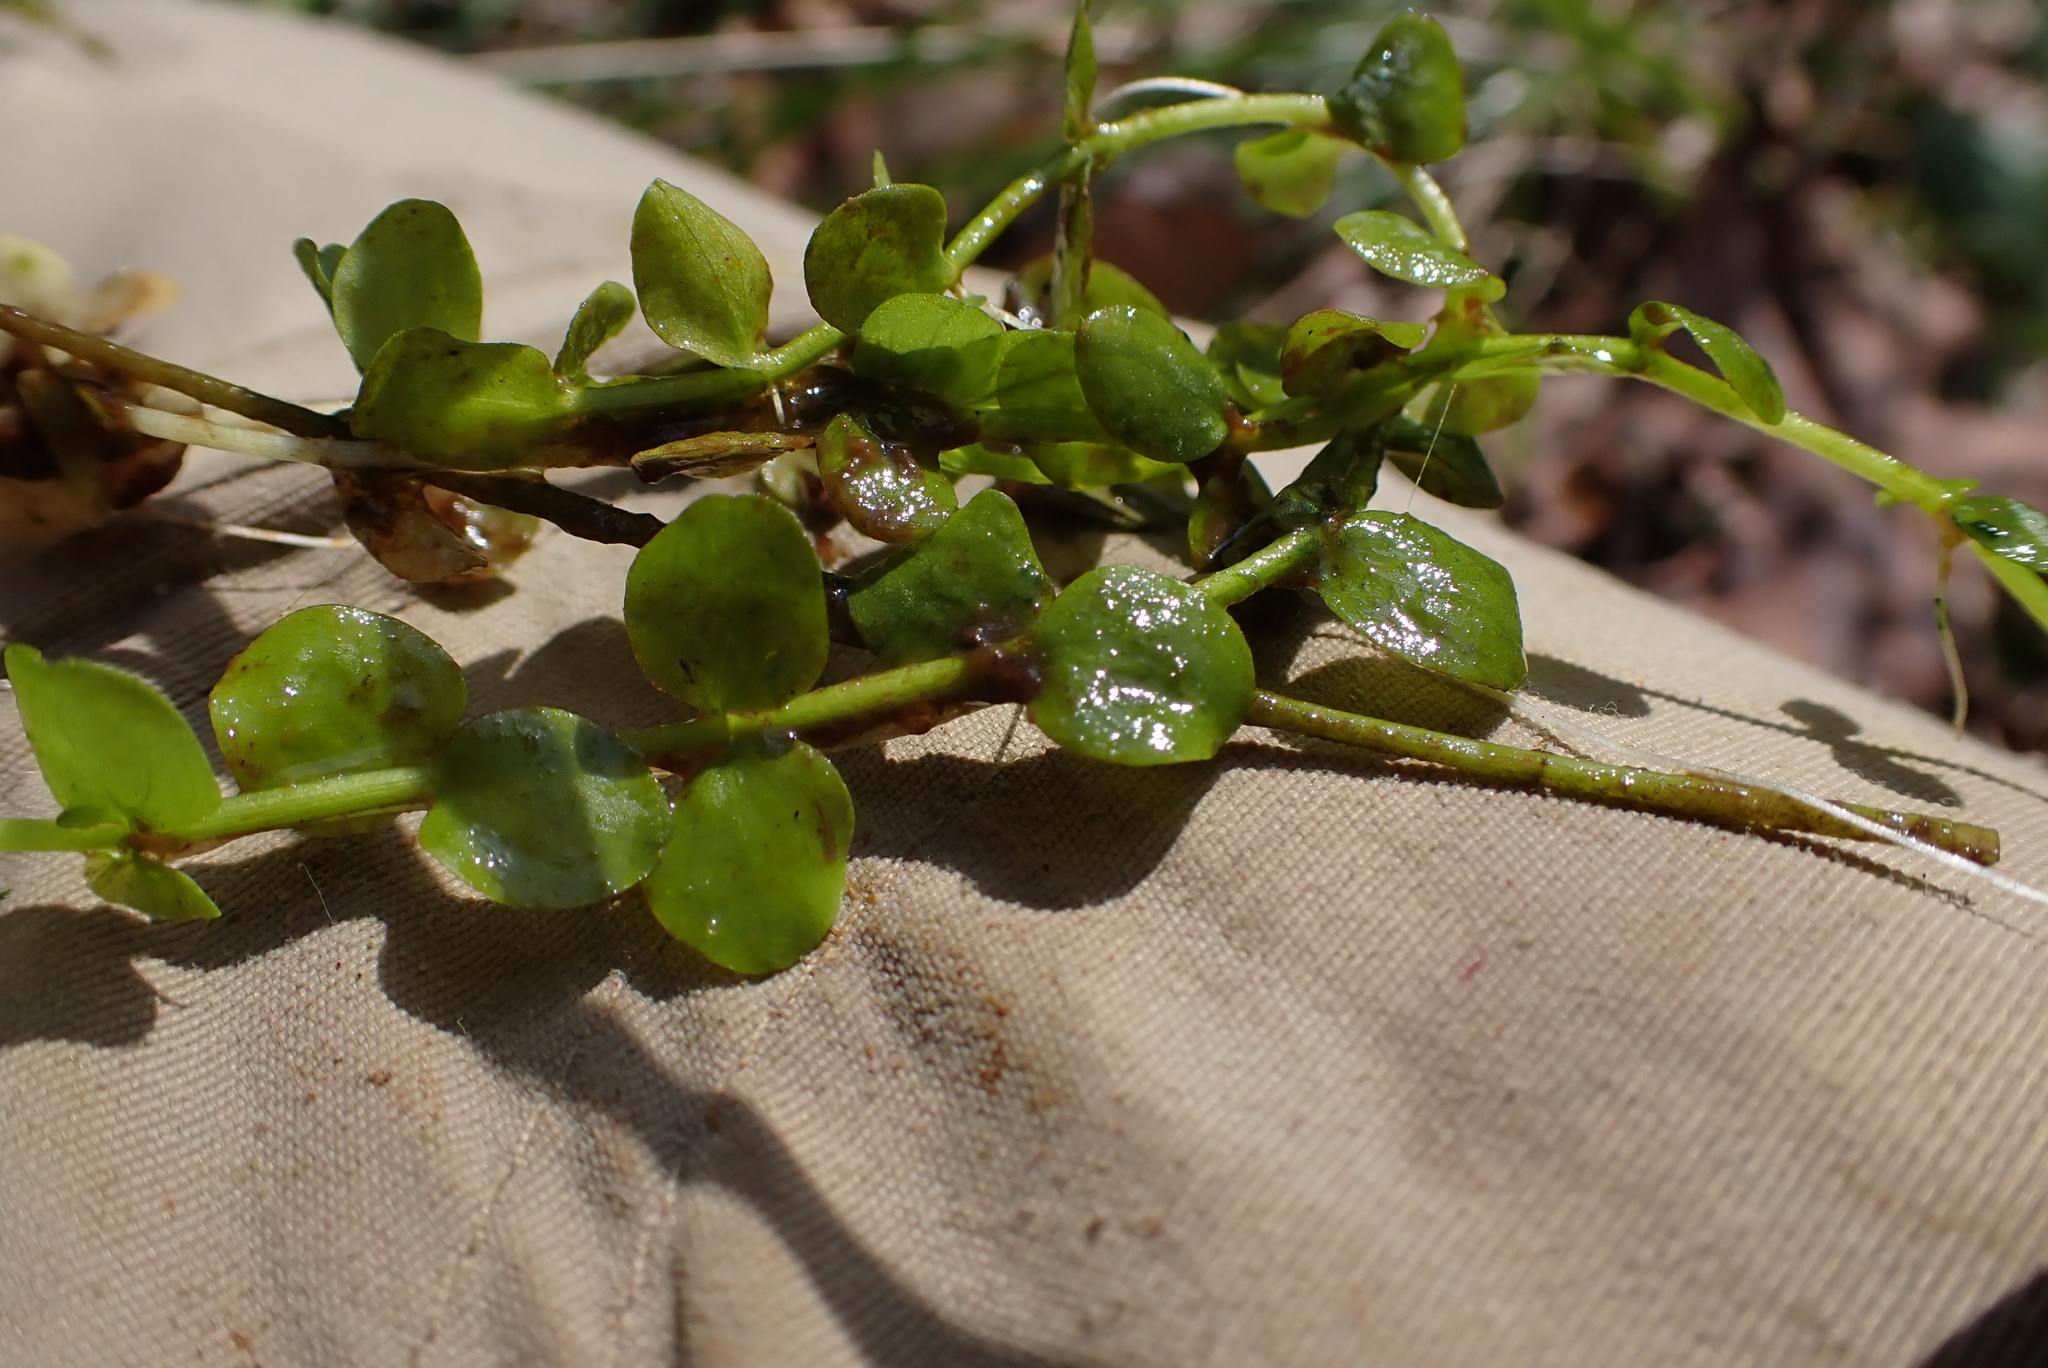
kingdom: Plantae
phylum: Tracheophyta
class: Magnoliopsida
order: Lamiales
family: Linderniaceae
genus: Micranthemum
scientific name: Micranthemum umbrosum
